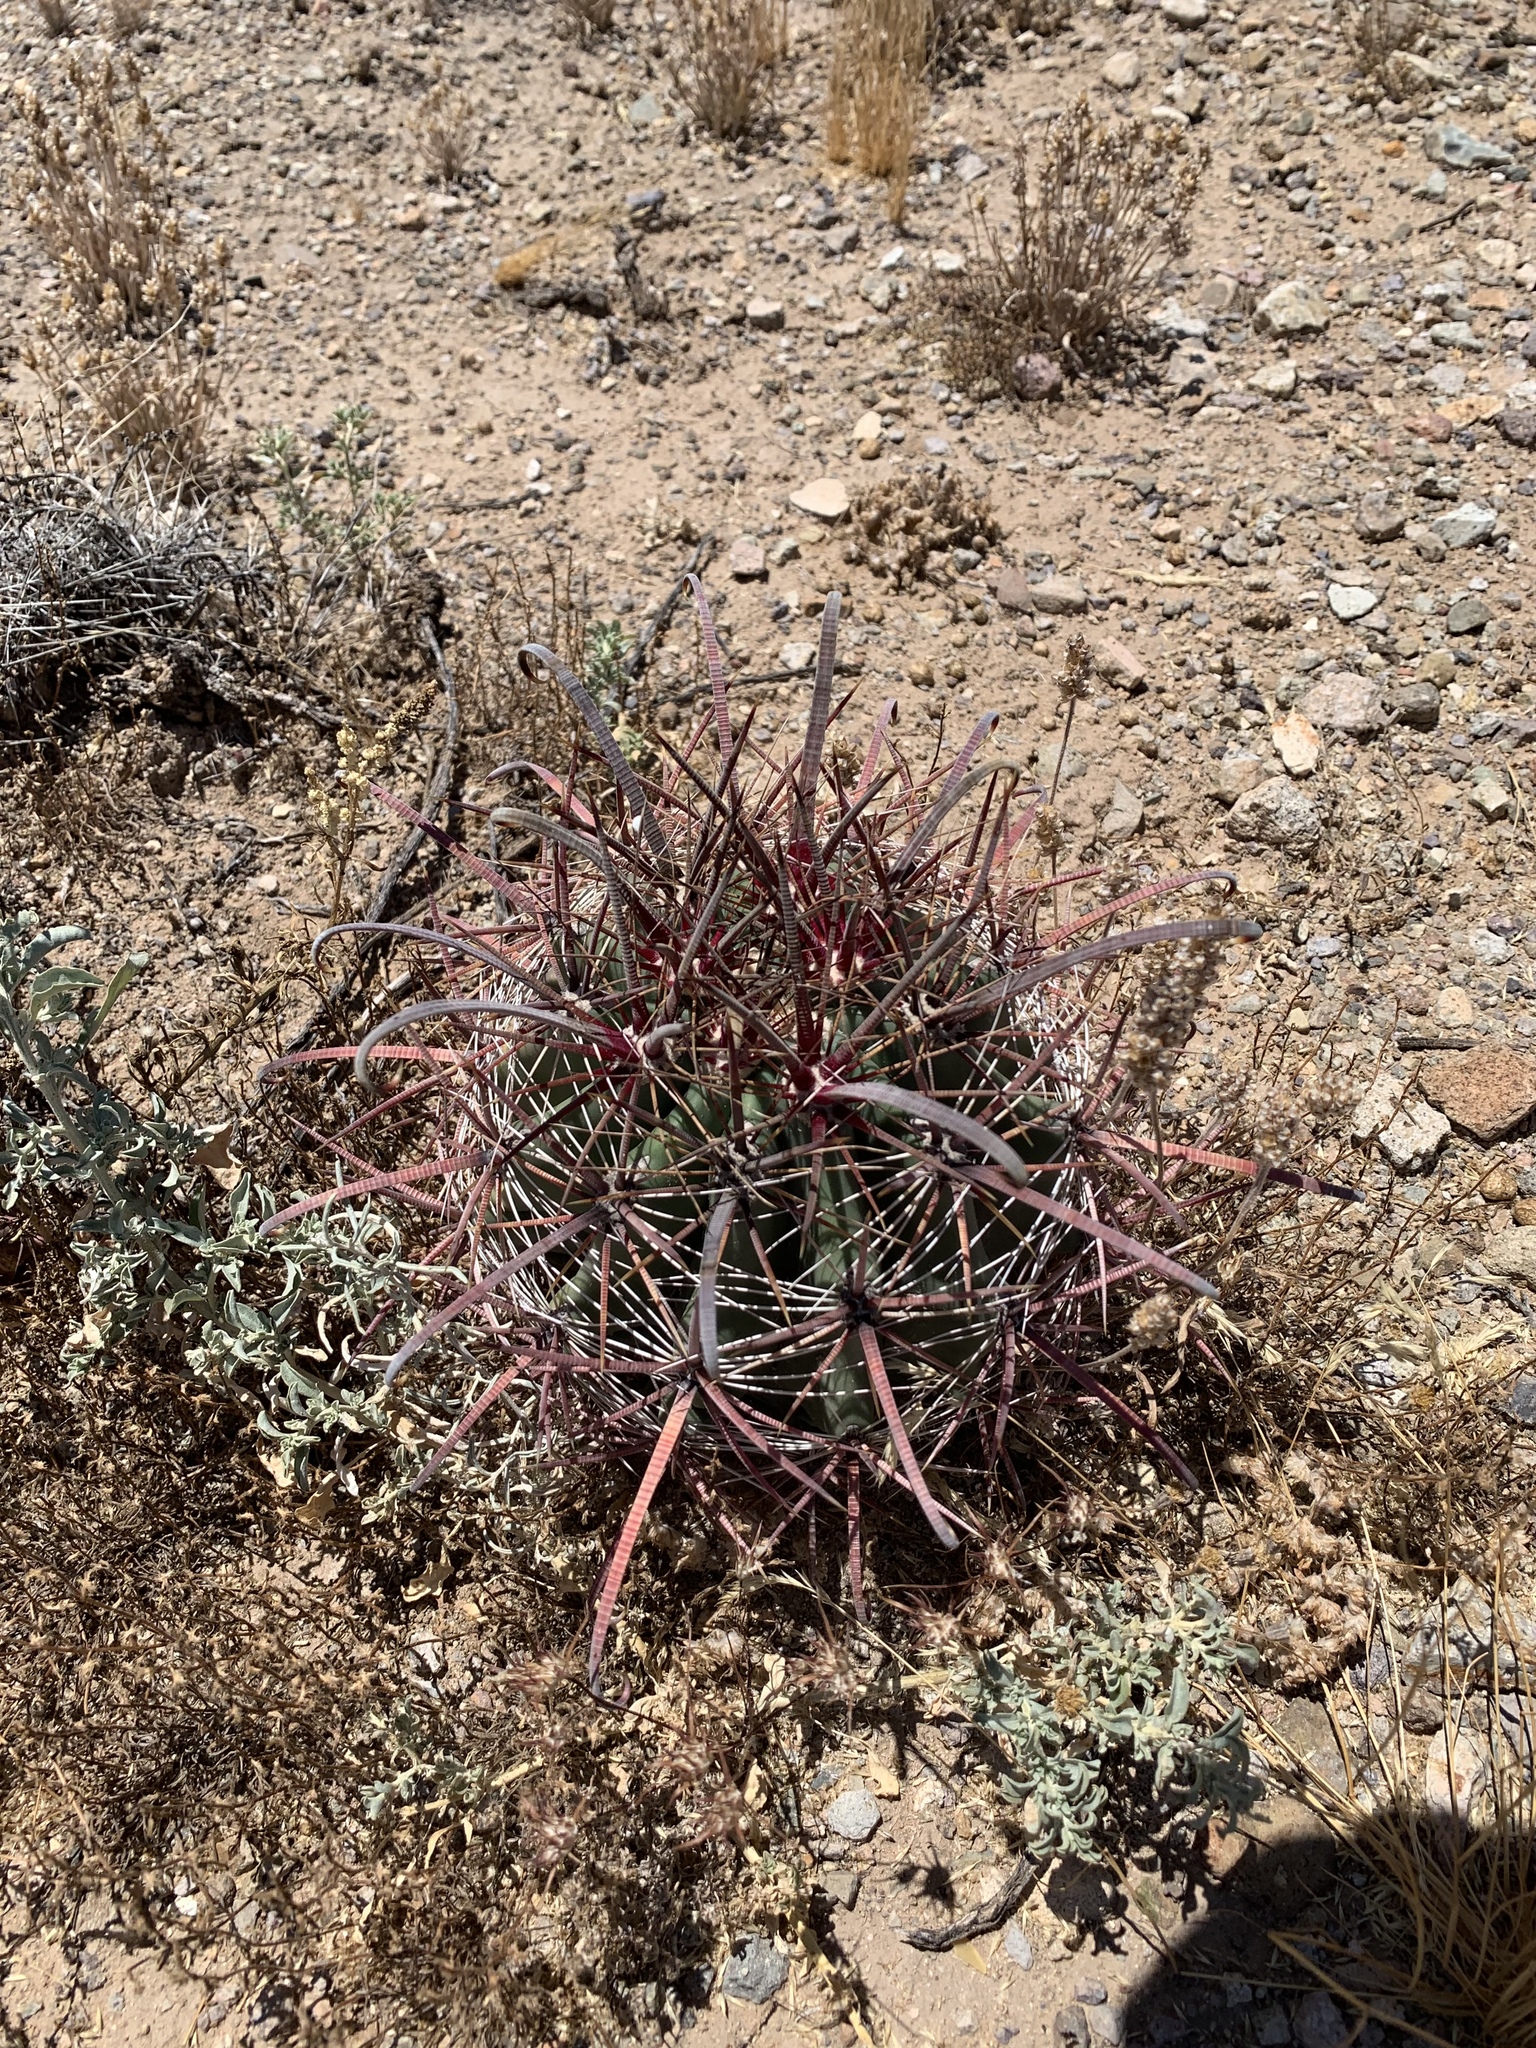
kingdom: Plantae
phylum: Tracheophyta
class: Magnoliopsida
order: Caryophyllales
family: Cactaceae
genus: Ferocactus
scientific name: Ferocactus wislizeni
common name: Candy barrel cactus
